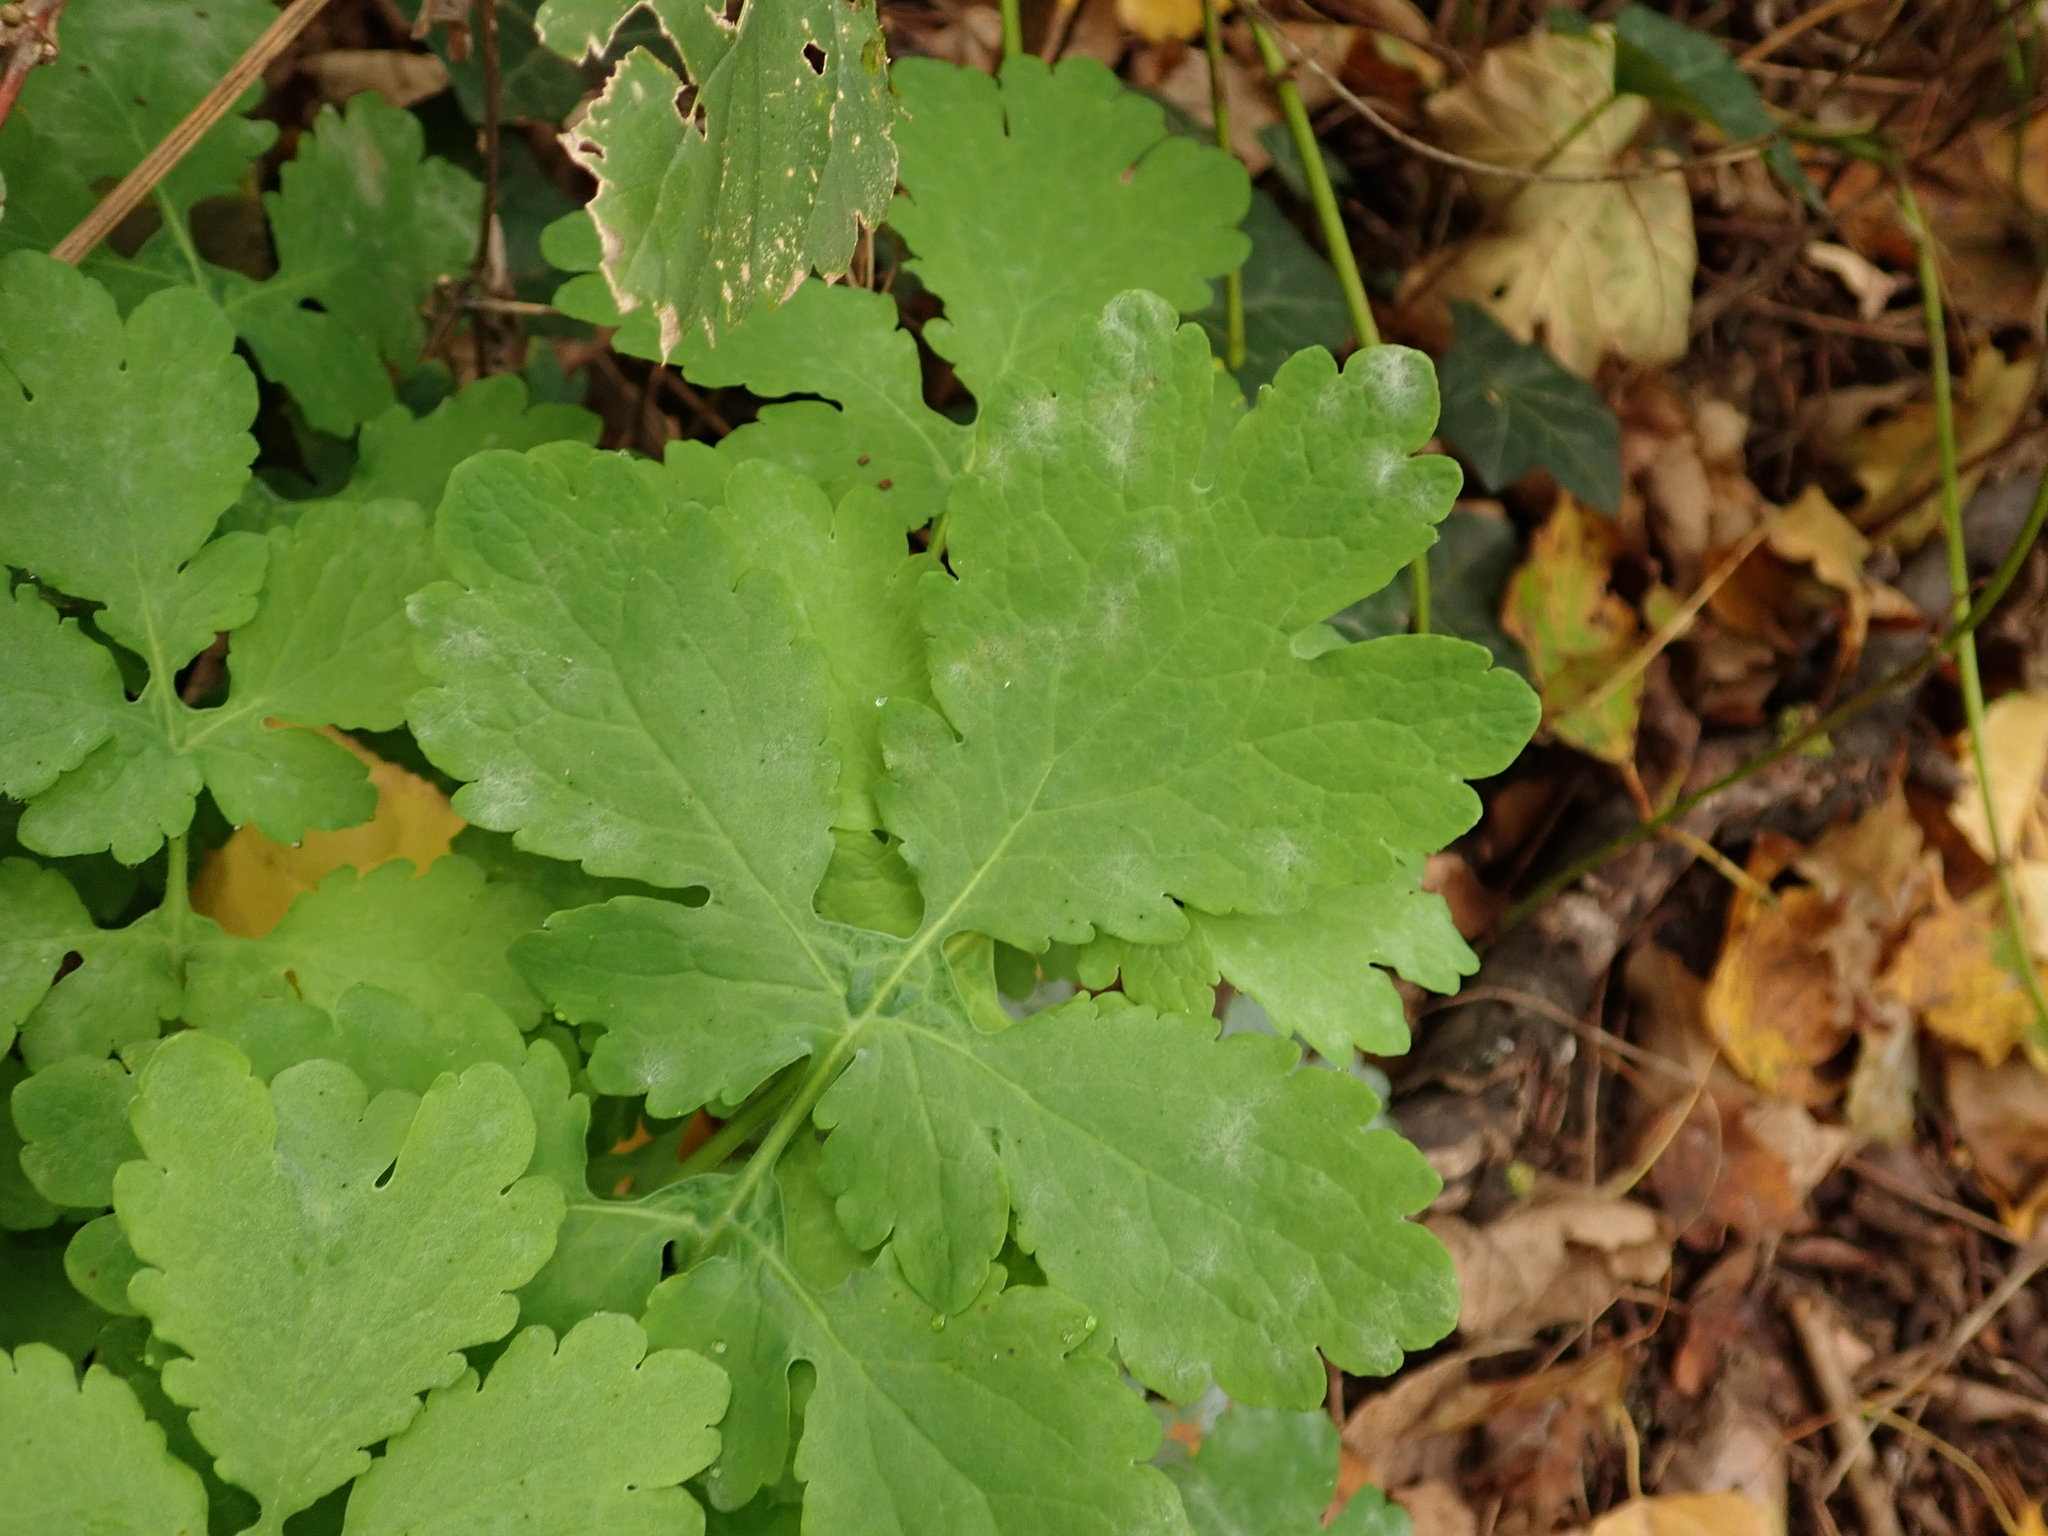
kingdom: Plantae
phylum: Tracheophyta
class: Magnoliopsida
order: Ranunculales
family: Papaveraceae
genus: Chelidonium
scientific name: Chelidonium majus
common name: Greater celandine
